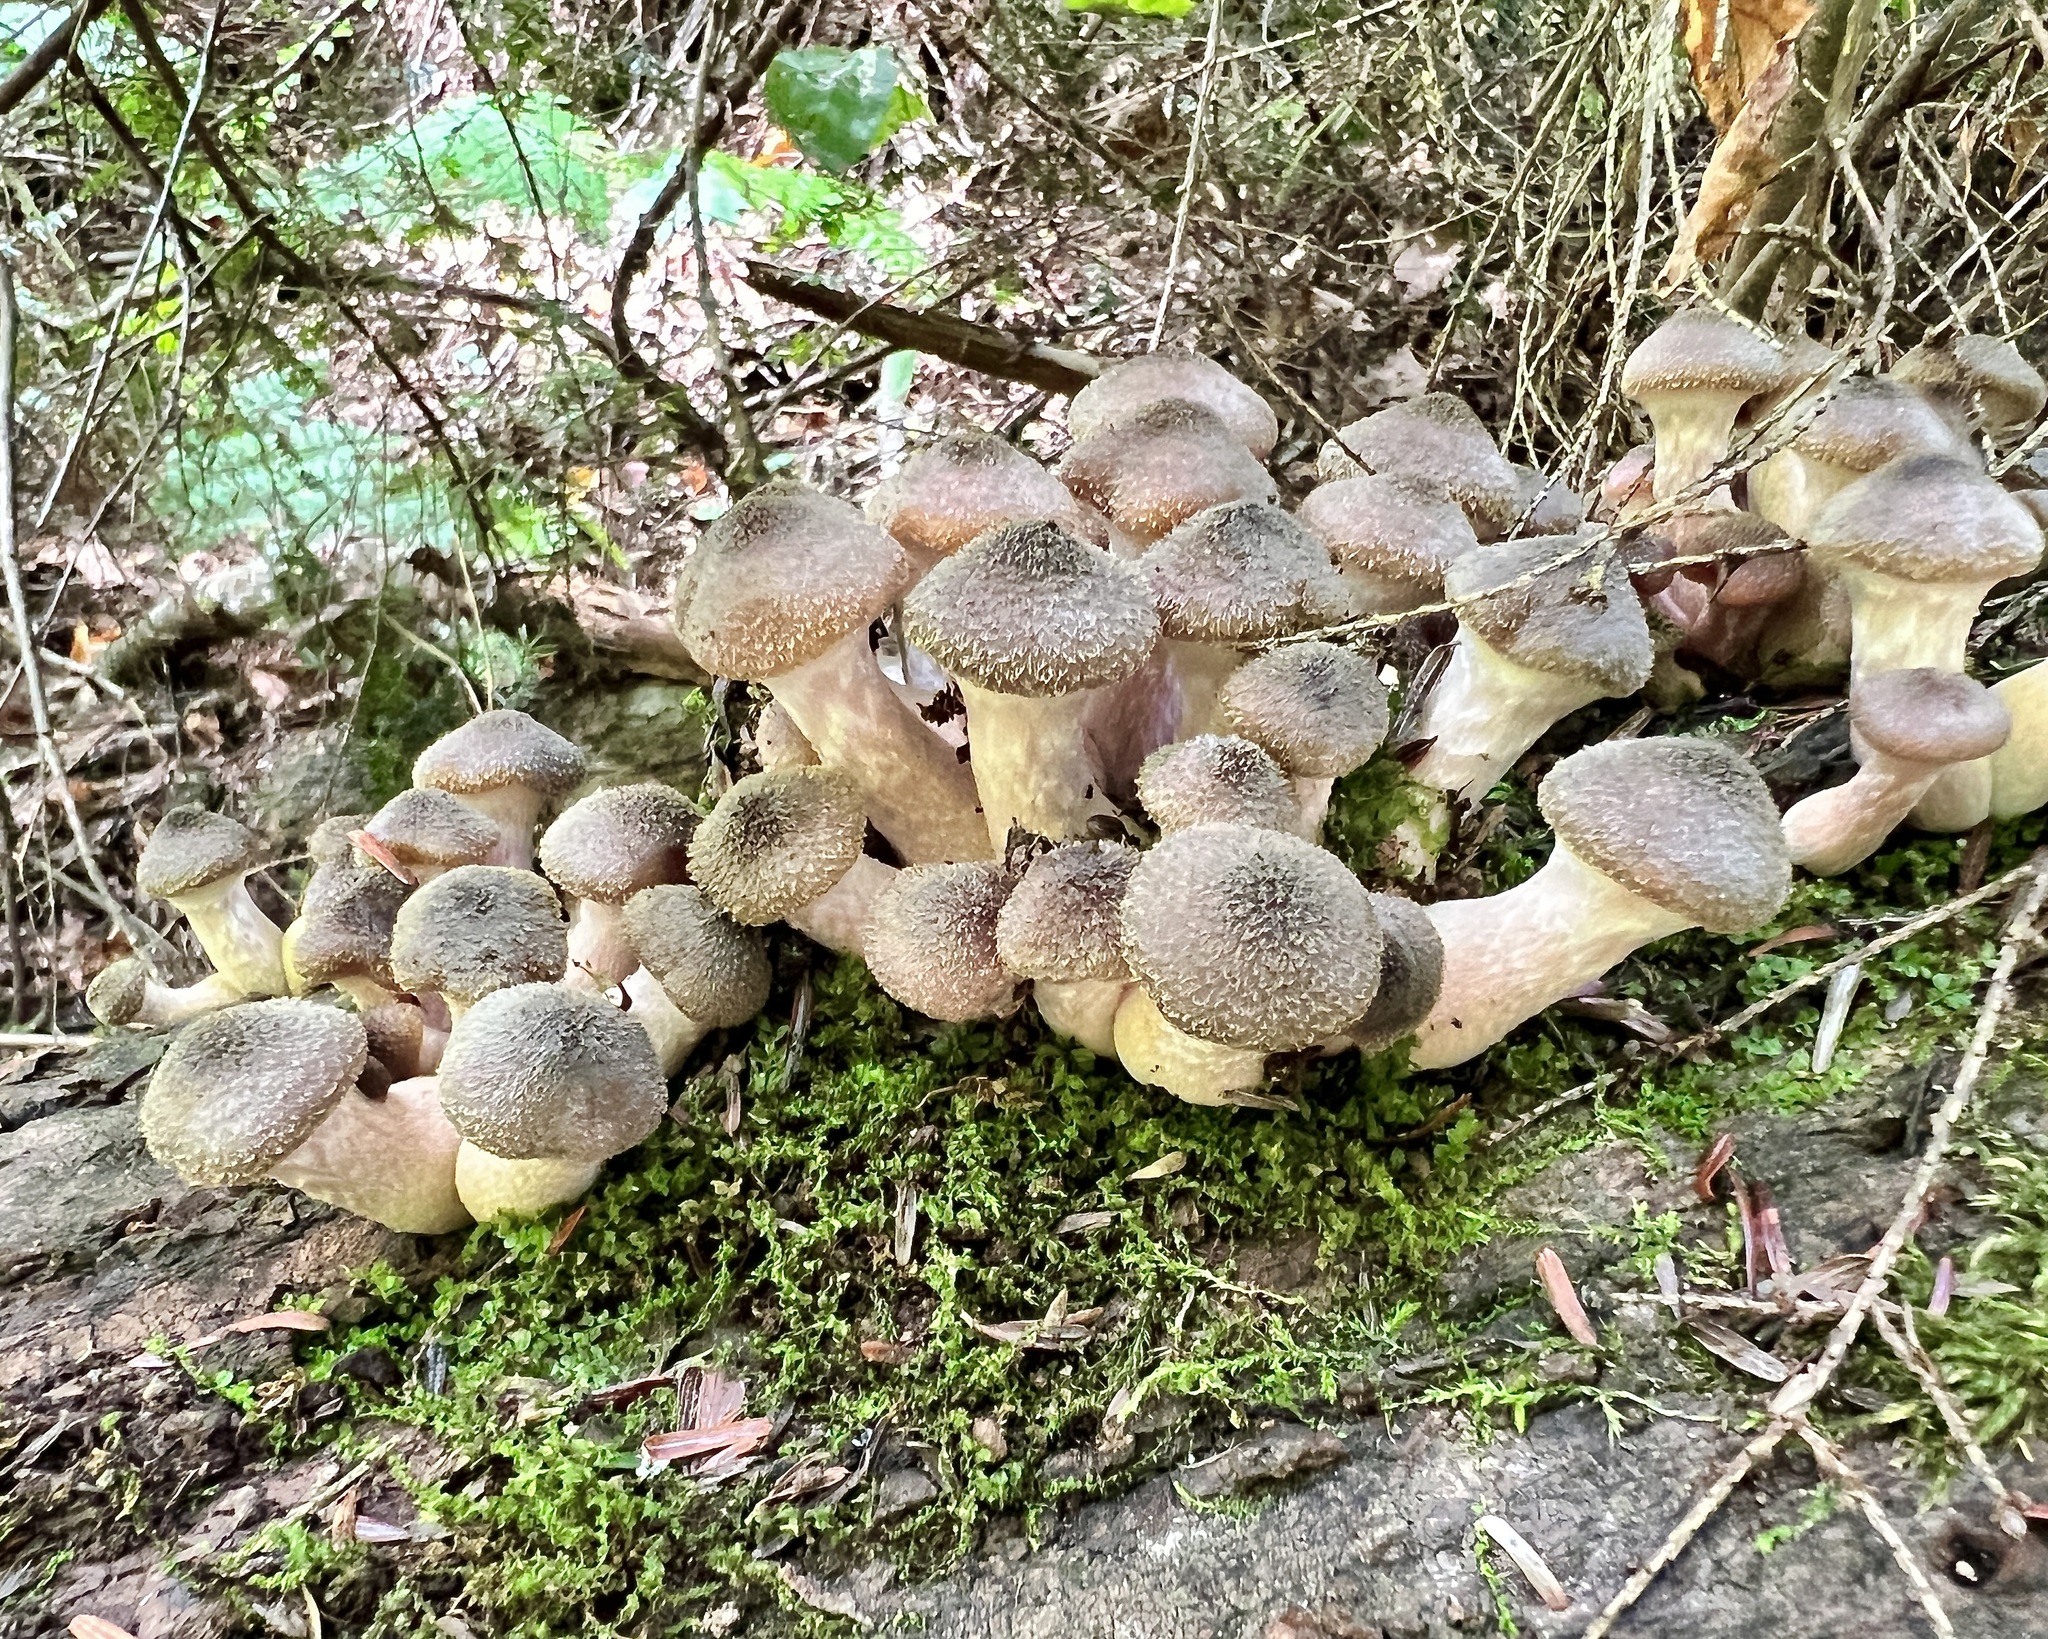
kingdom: Fungi
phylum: Basidiomycota
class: Agaricomycetes
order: Agaricales
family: Physalacriaceae
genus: Armillaria
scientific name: Armillaria gallica
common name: Bulbous honey fungus
